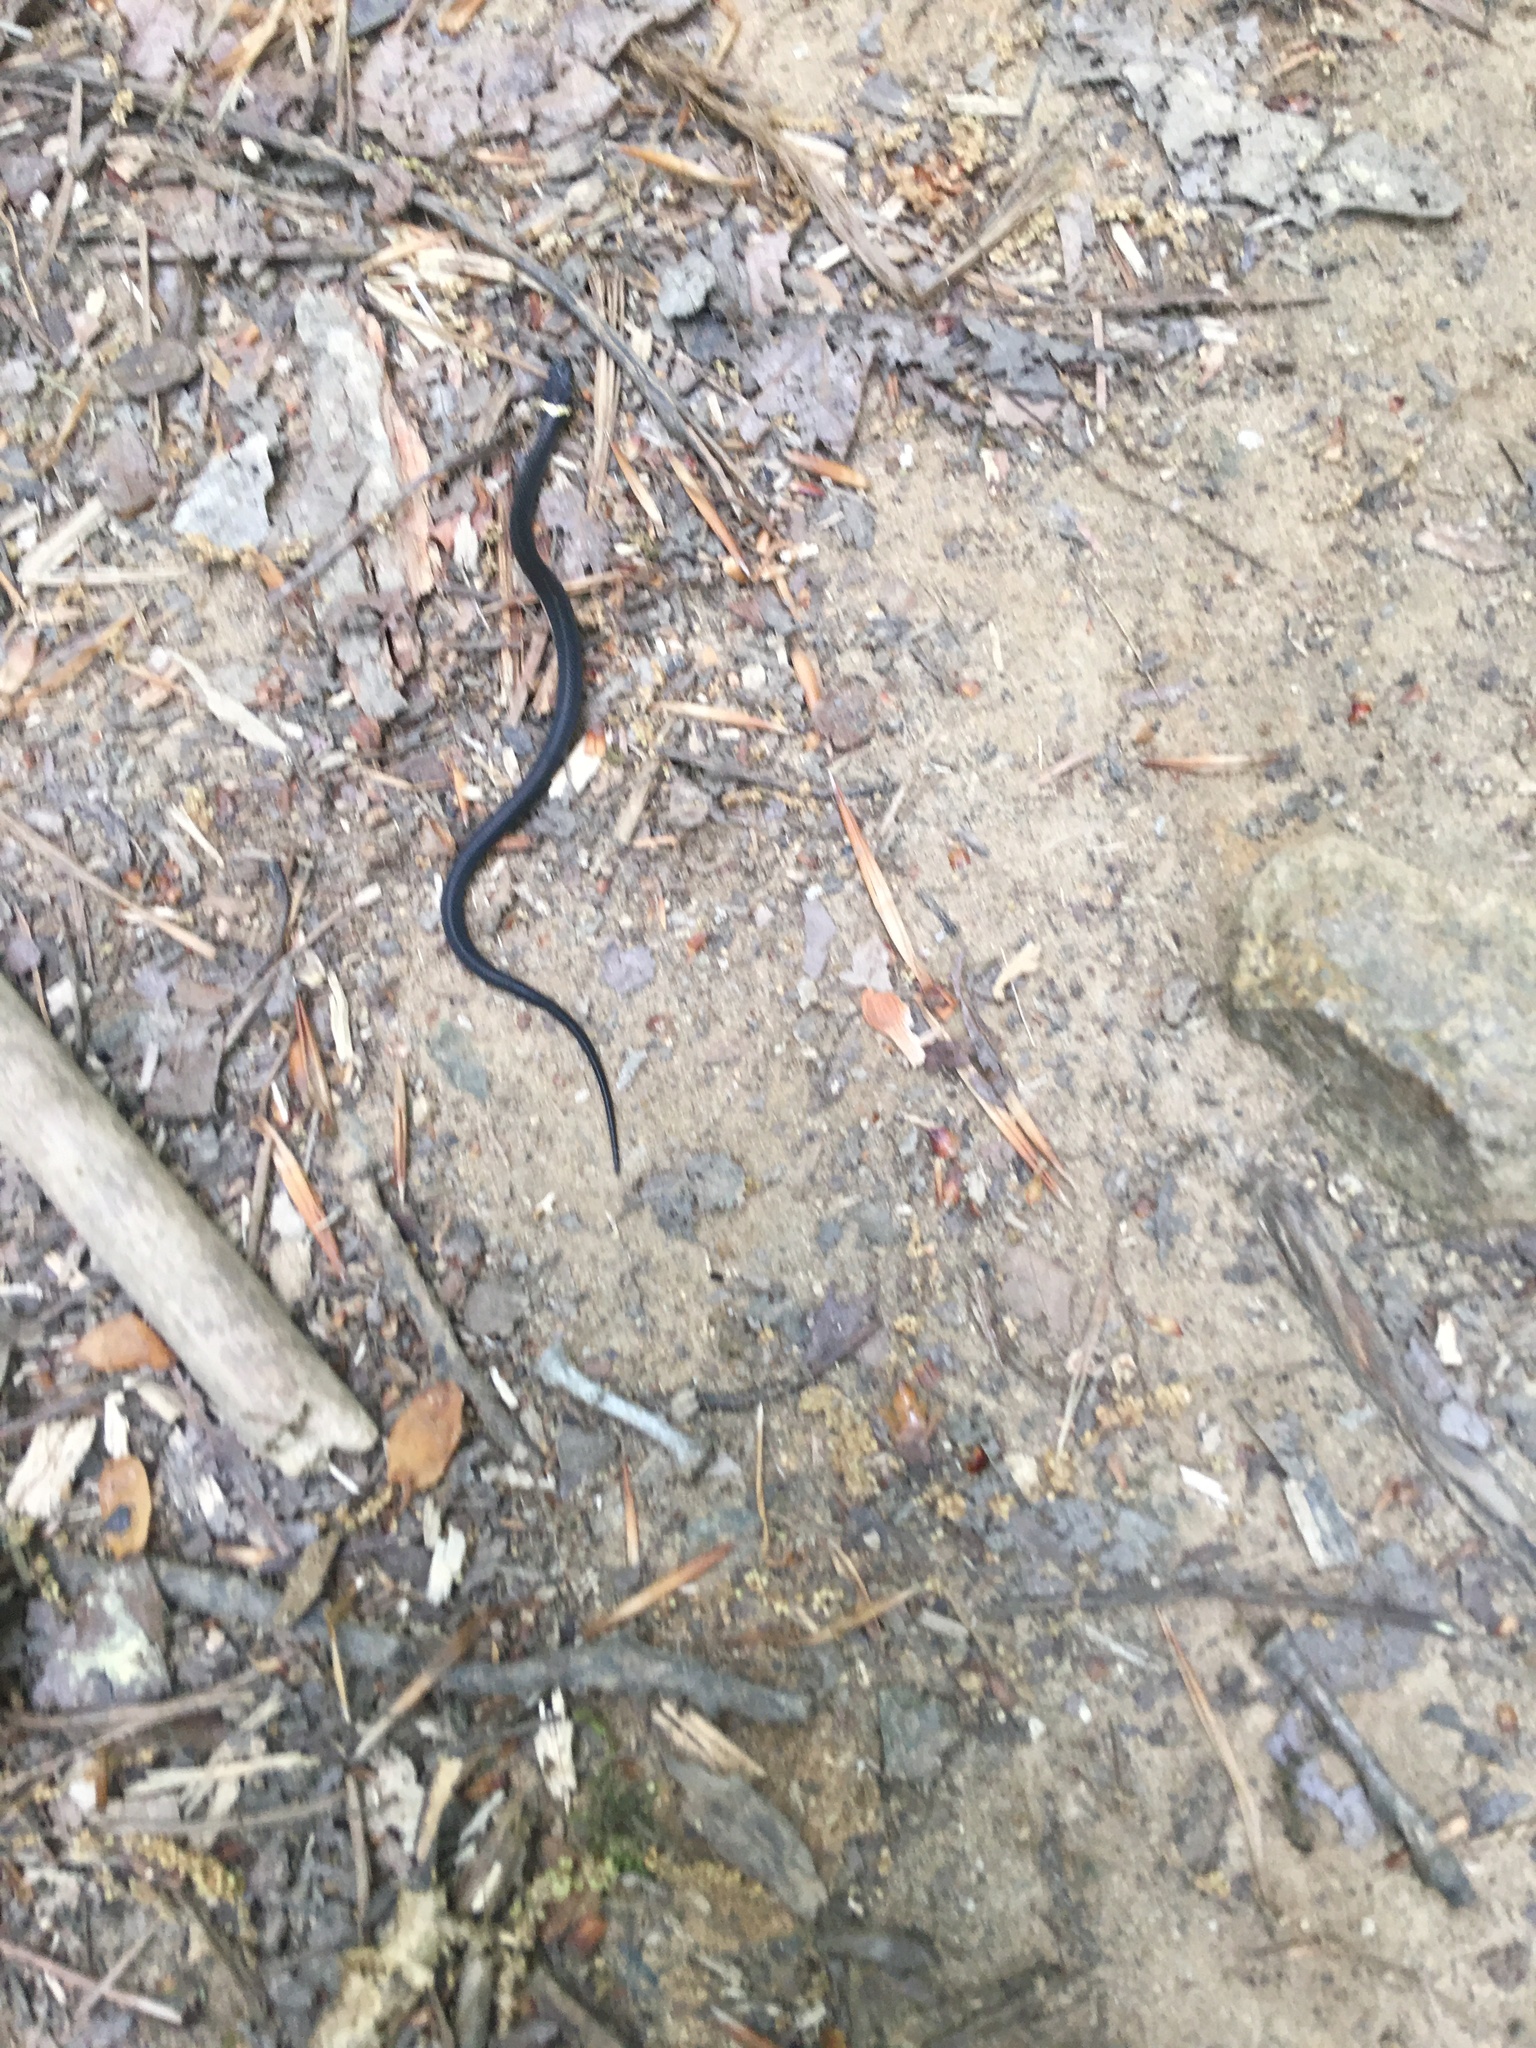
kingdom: Animalia
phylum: Chordata
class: Squamata
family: Colubridae
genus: Diadophis
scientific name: Diadophis punctatus
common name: Ringneck snake
